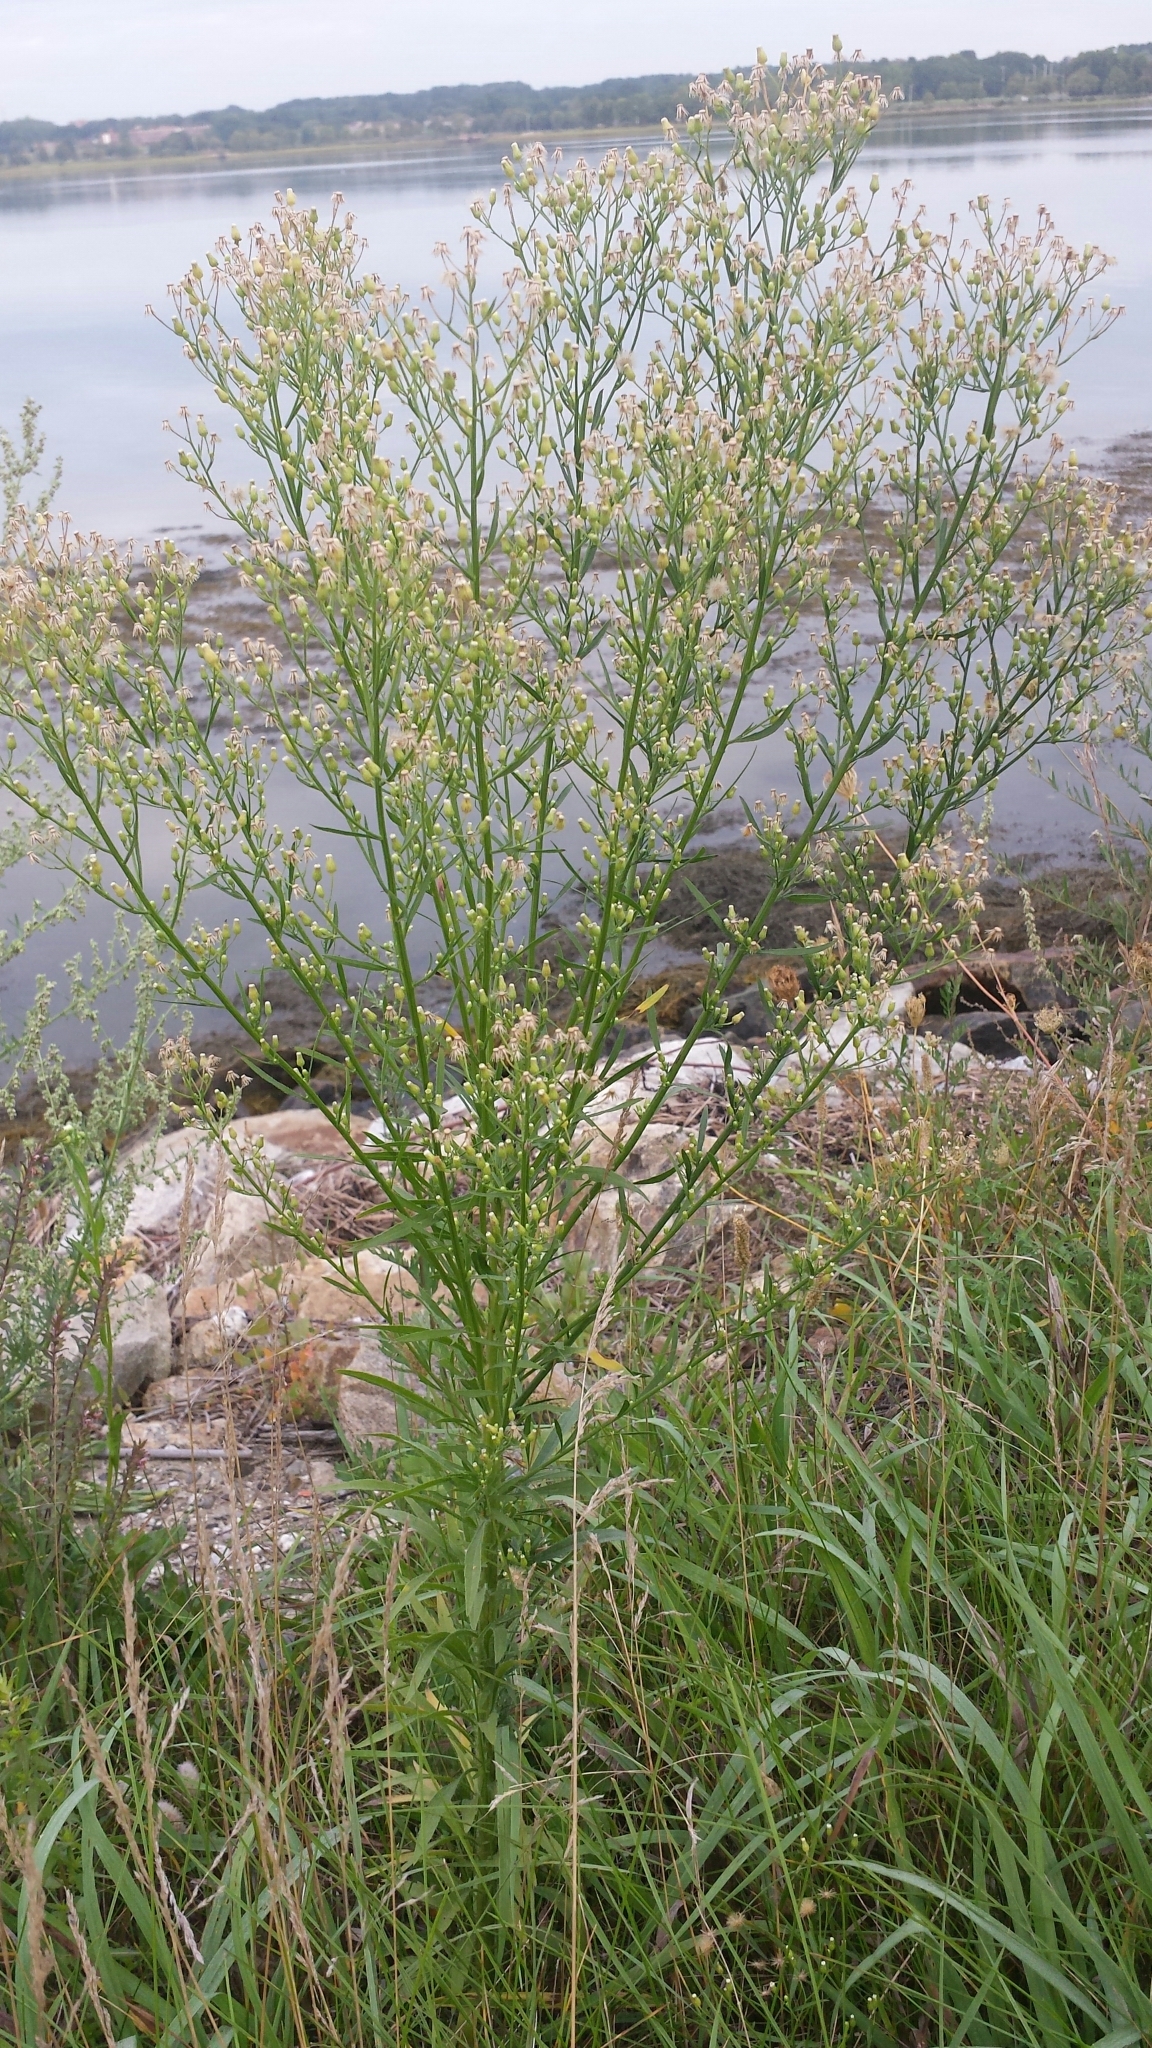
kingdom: Plantae
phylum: Tracheophyta
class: Magnoliopsida
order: Asterales
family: Asteraceae
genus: Erigeron
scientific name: Erigeron canadensis
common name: Canadian fleabane
